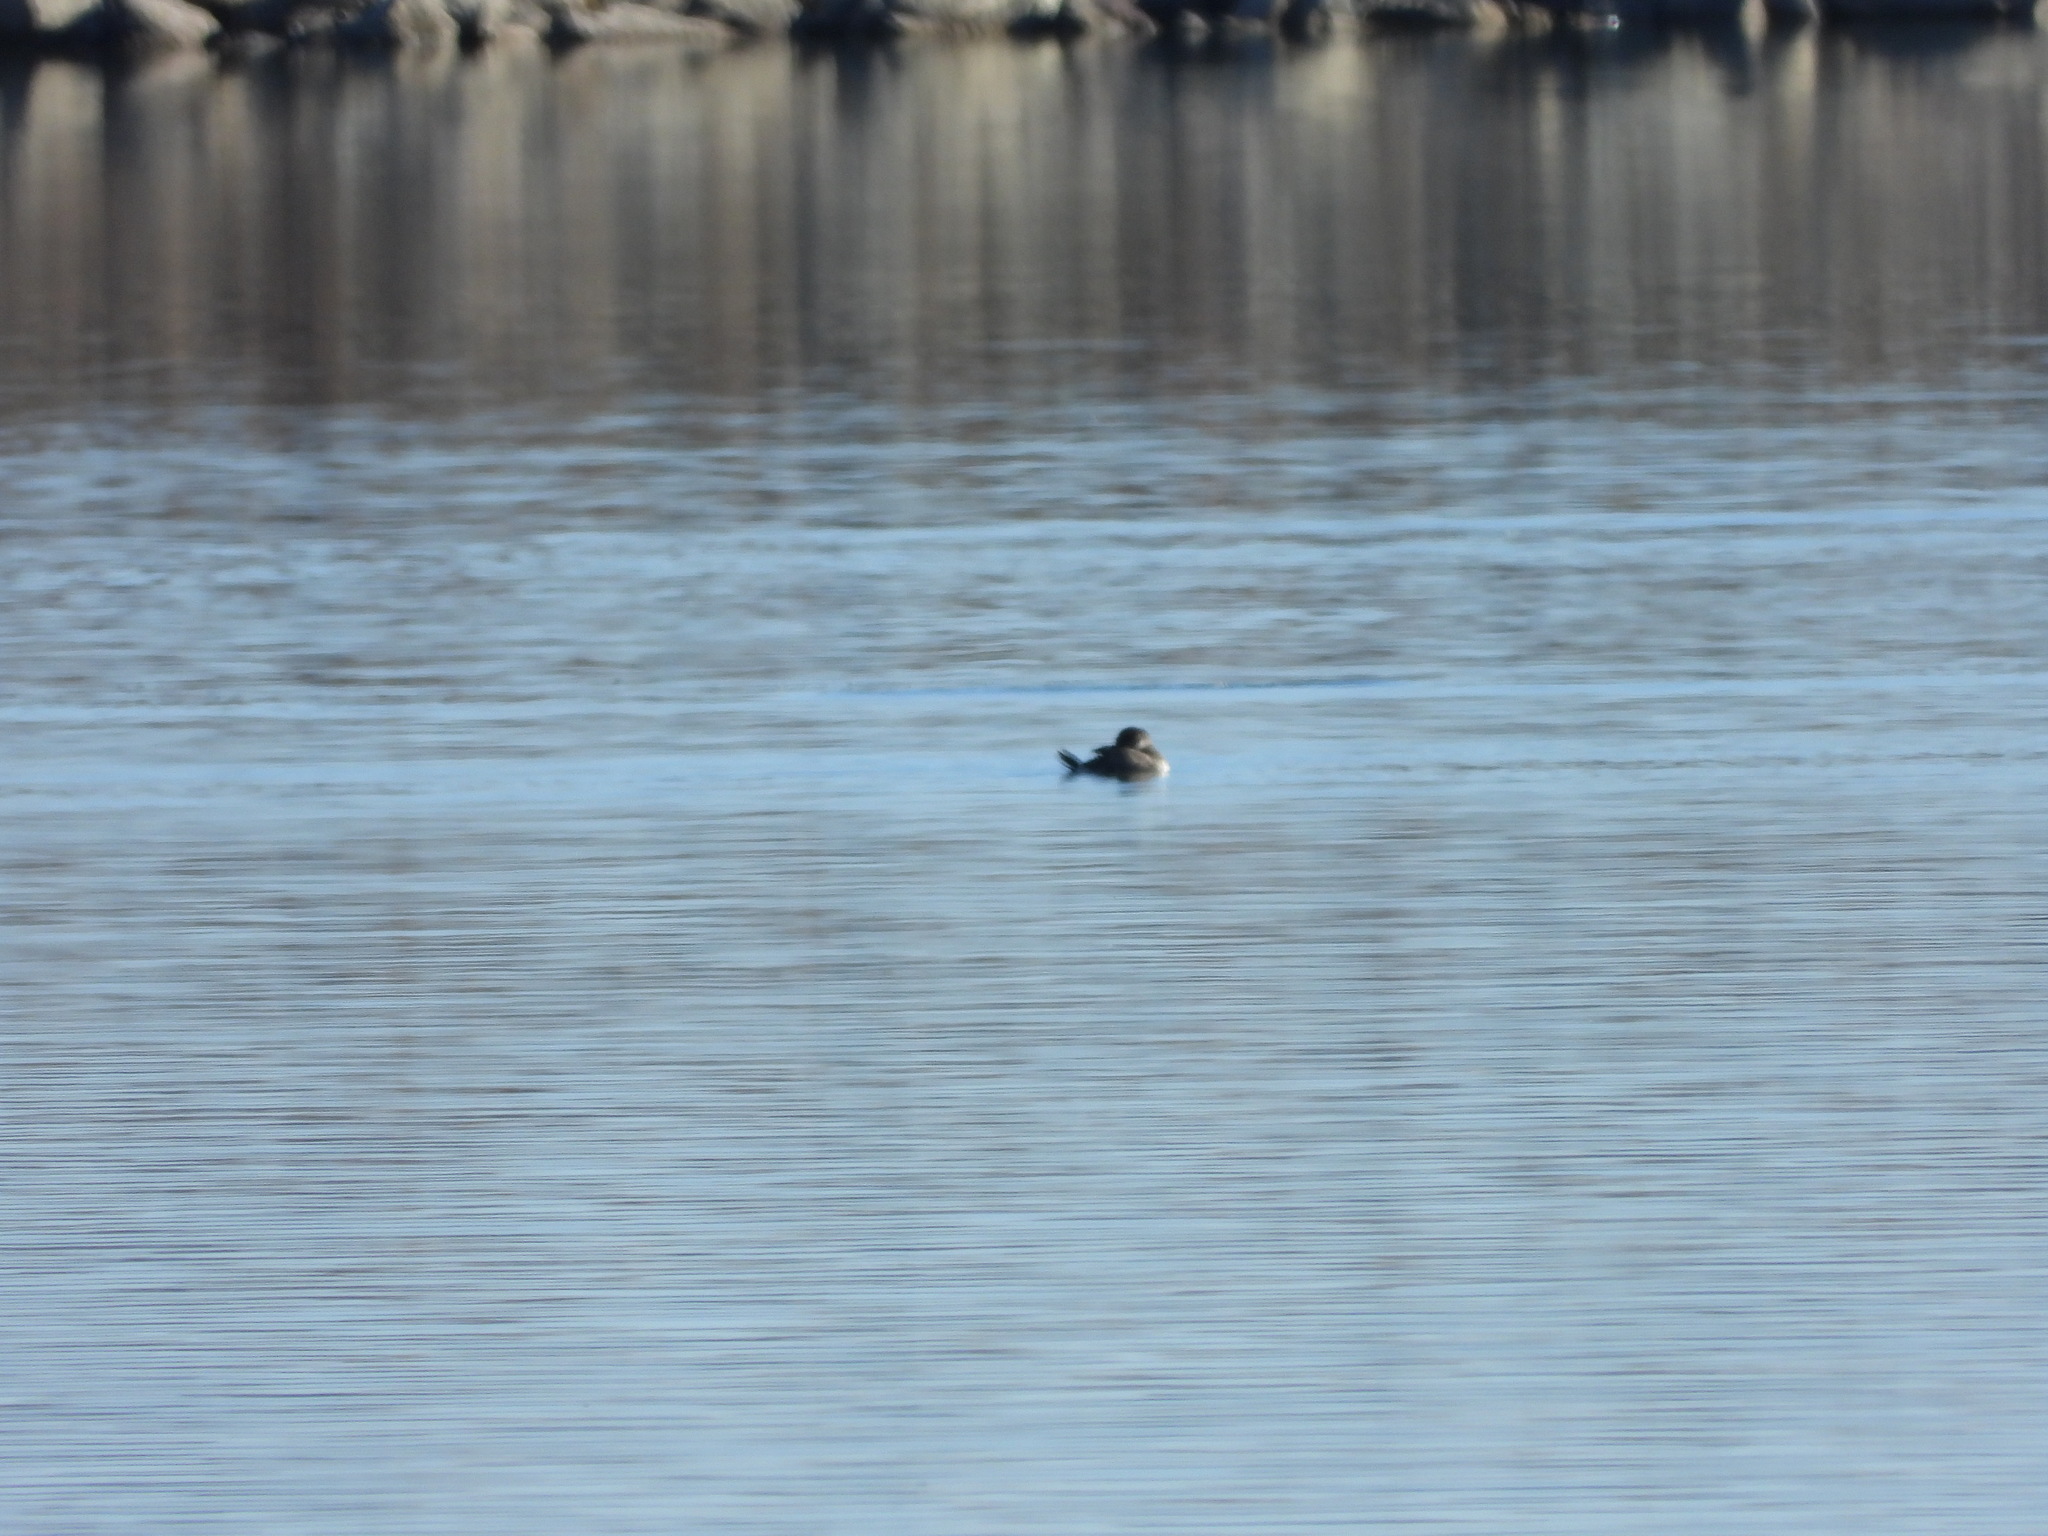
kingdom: Animalia
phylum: Chordata
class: Aves
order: Anseriformes
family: Anatidae
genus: Oxyura
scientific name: Oxyura jamaicensis
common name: Ruddy duck
